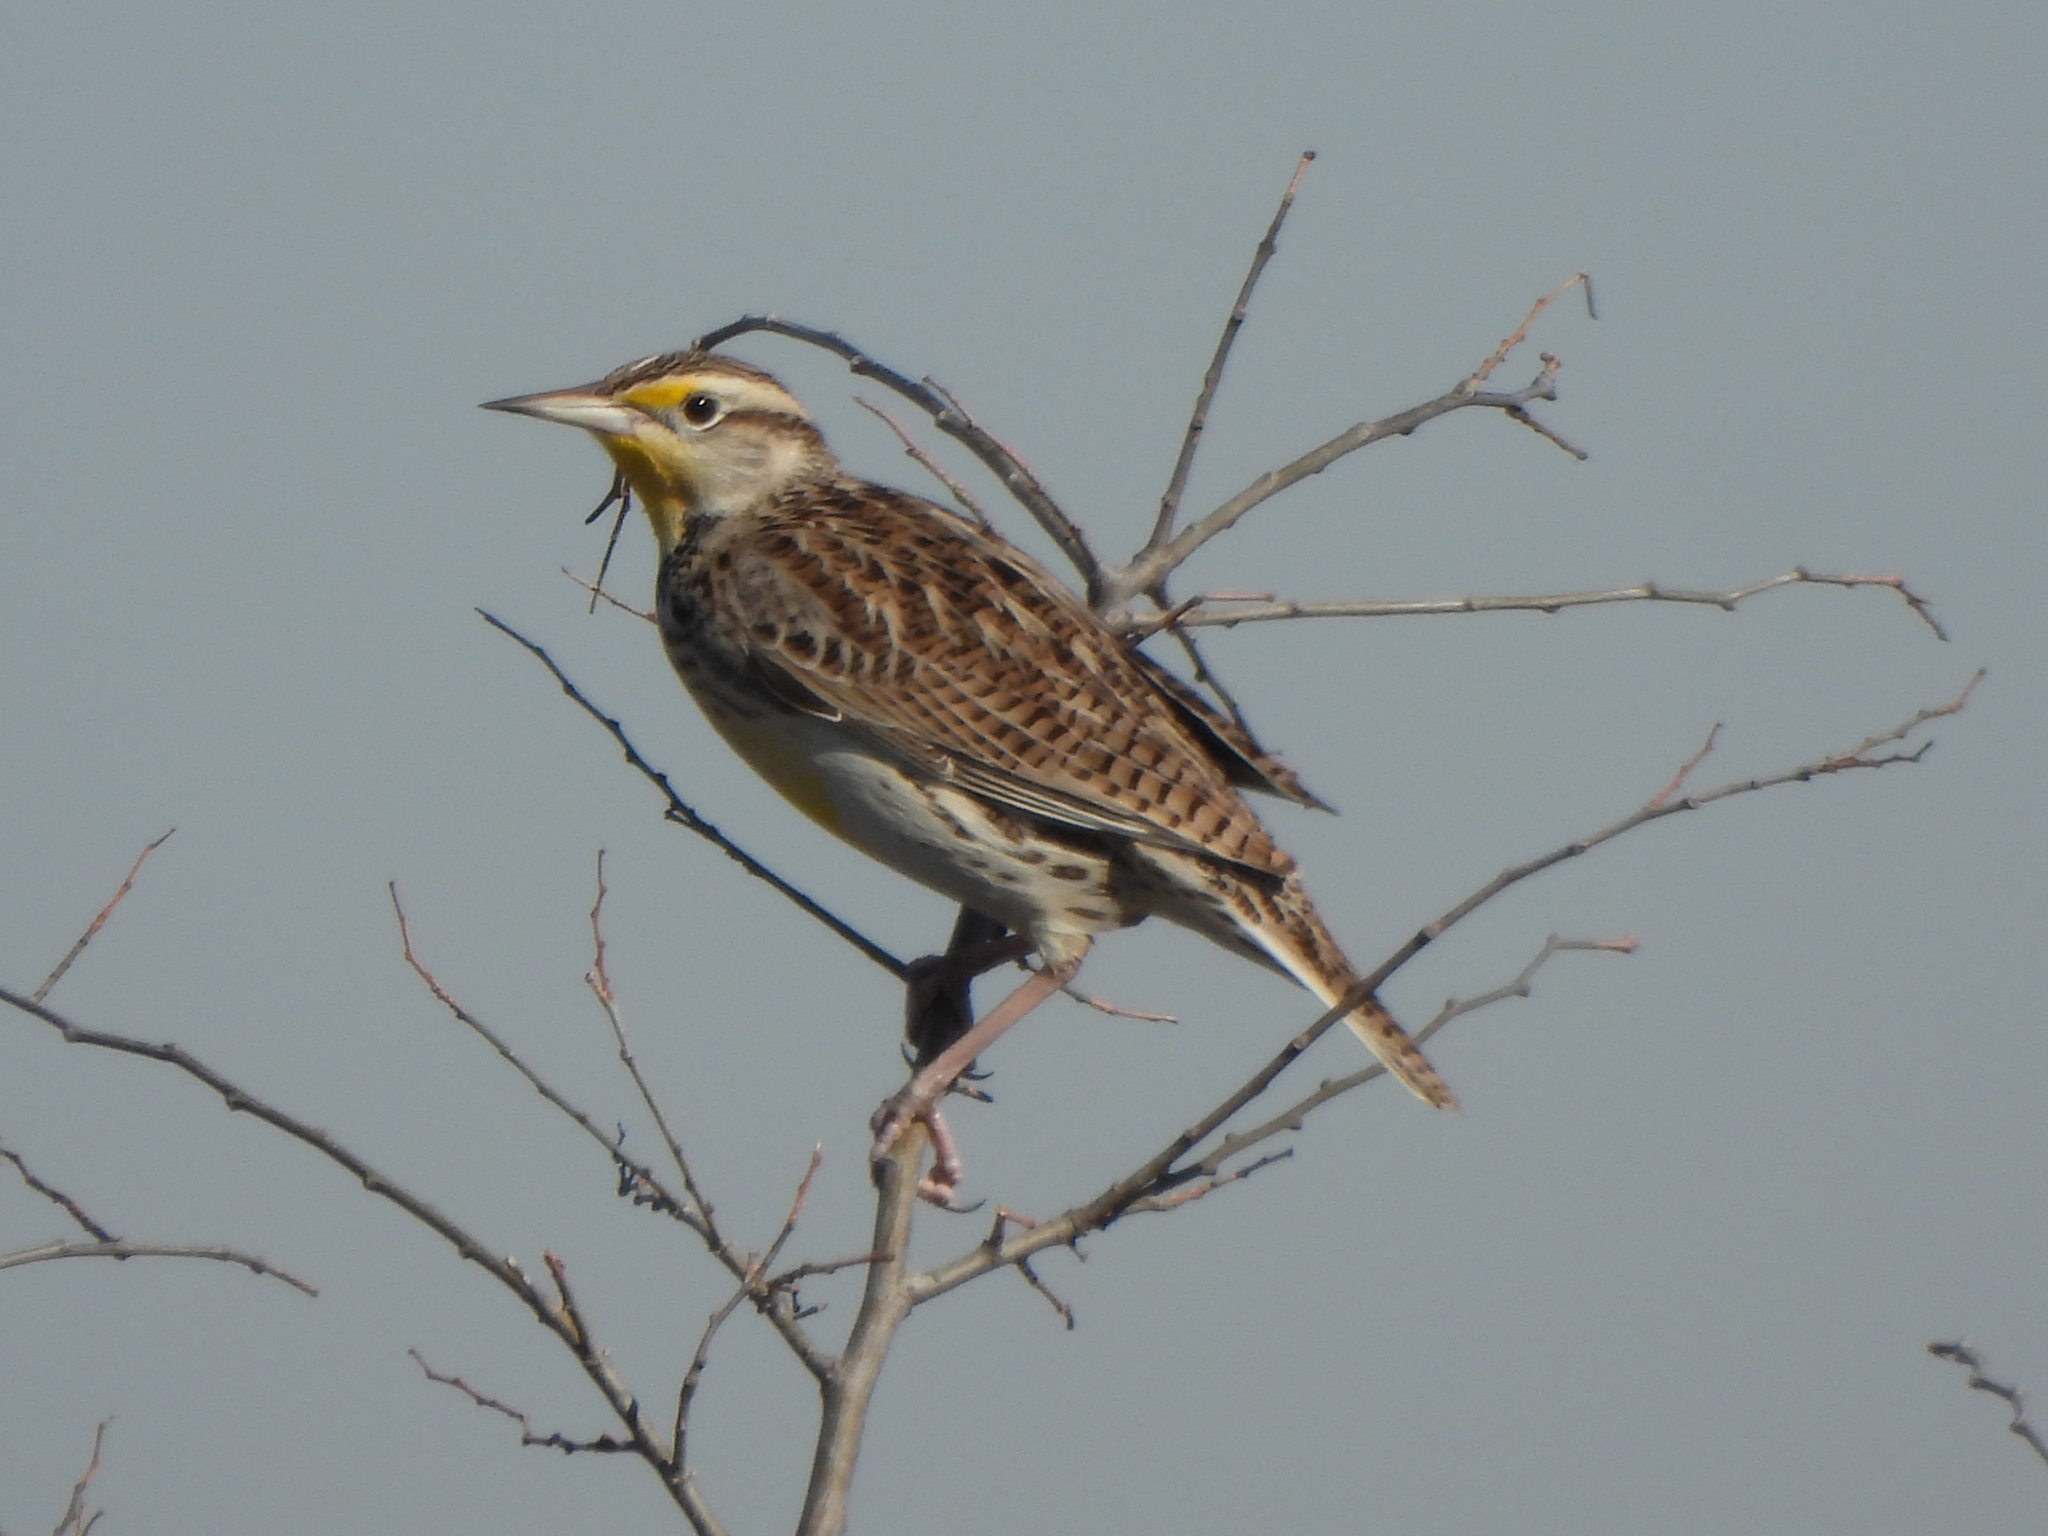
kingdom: Animalia
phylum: Chordata
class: Aves
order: Passeriformes
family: Icteridae
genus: Sturnella
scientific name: Sturnella neglecta
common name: Western meadowlark
